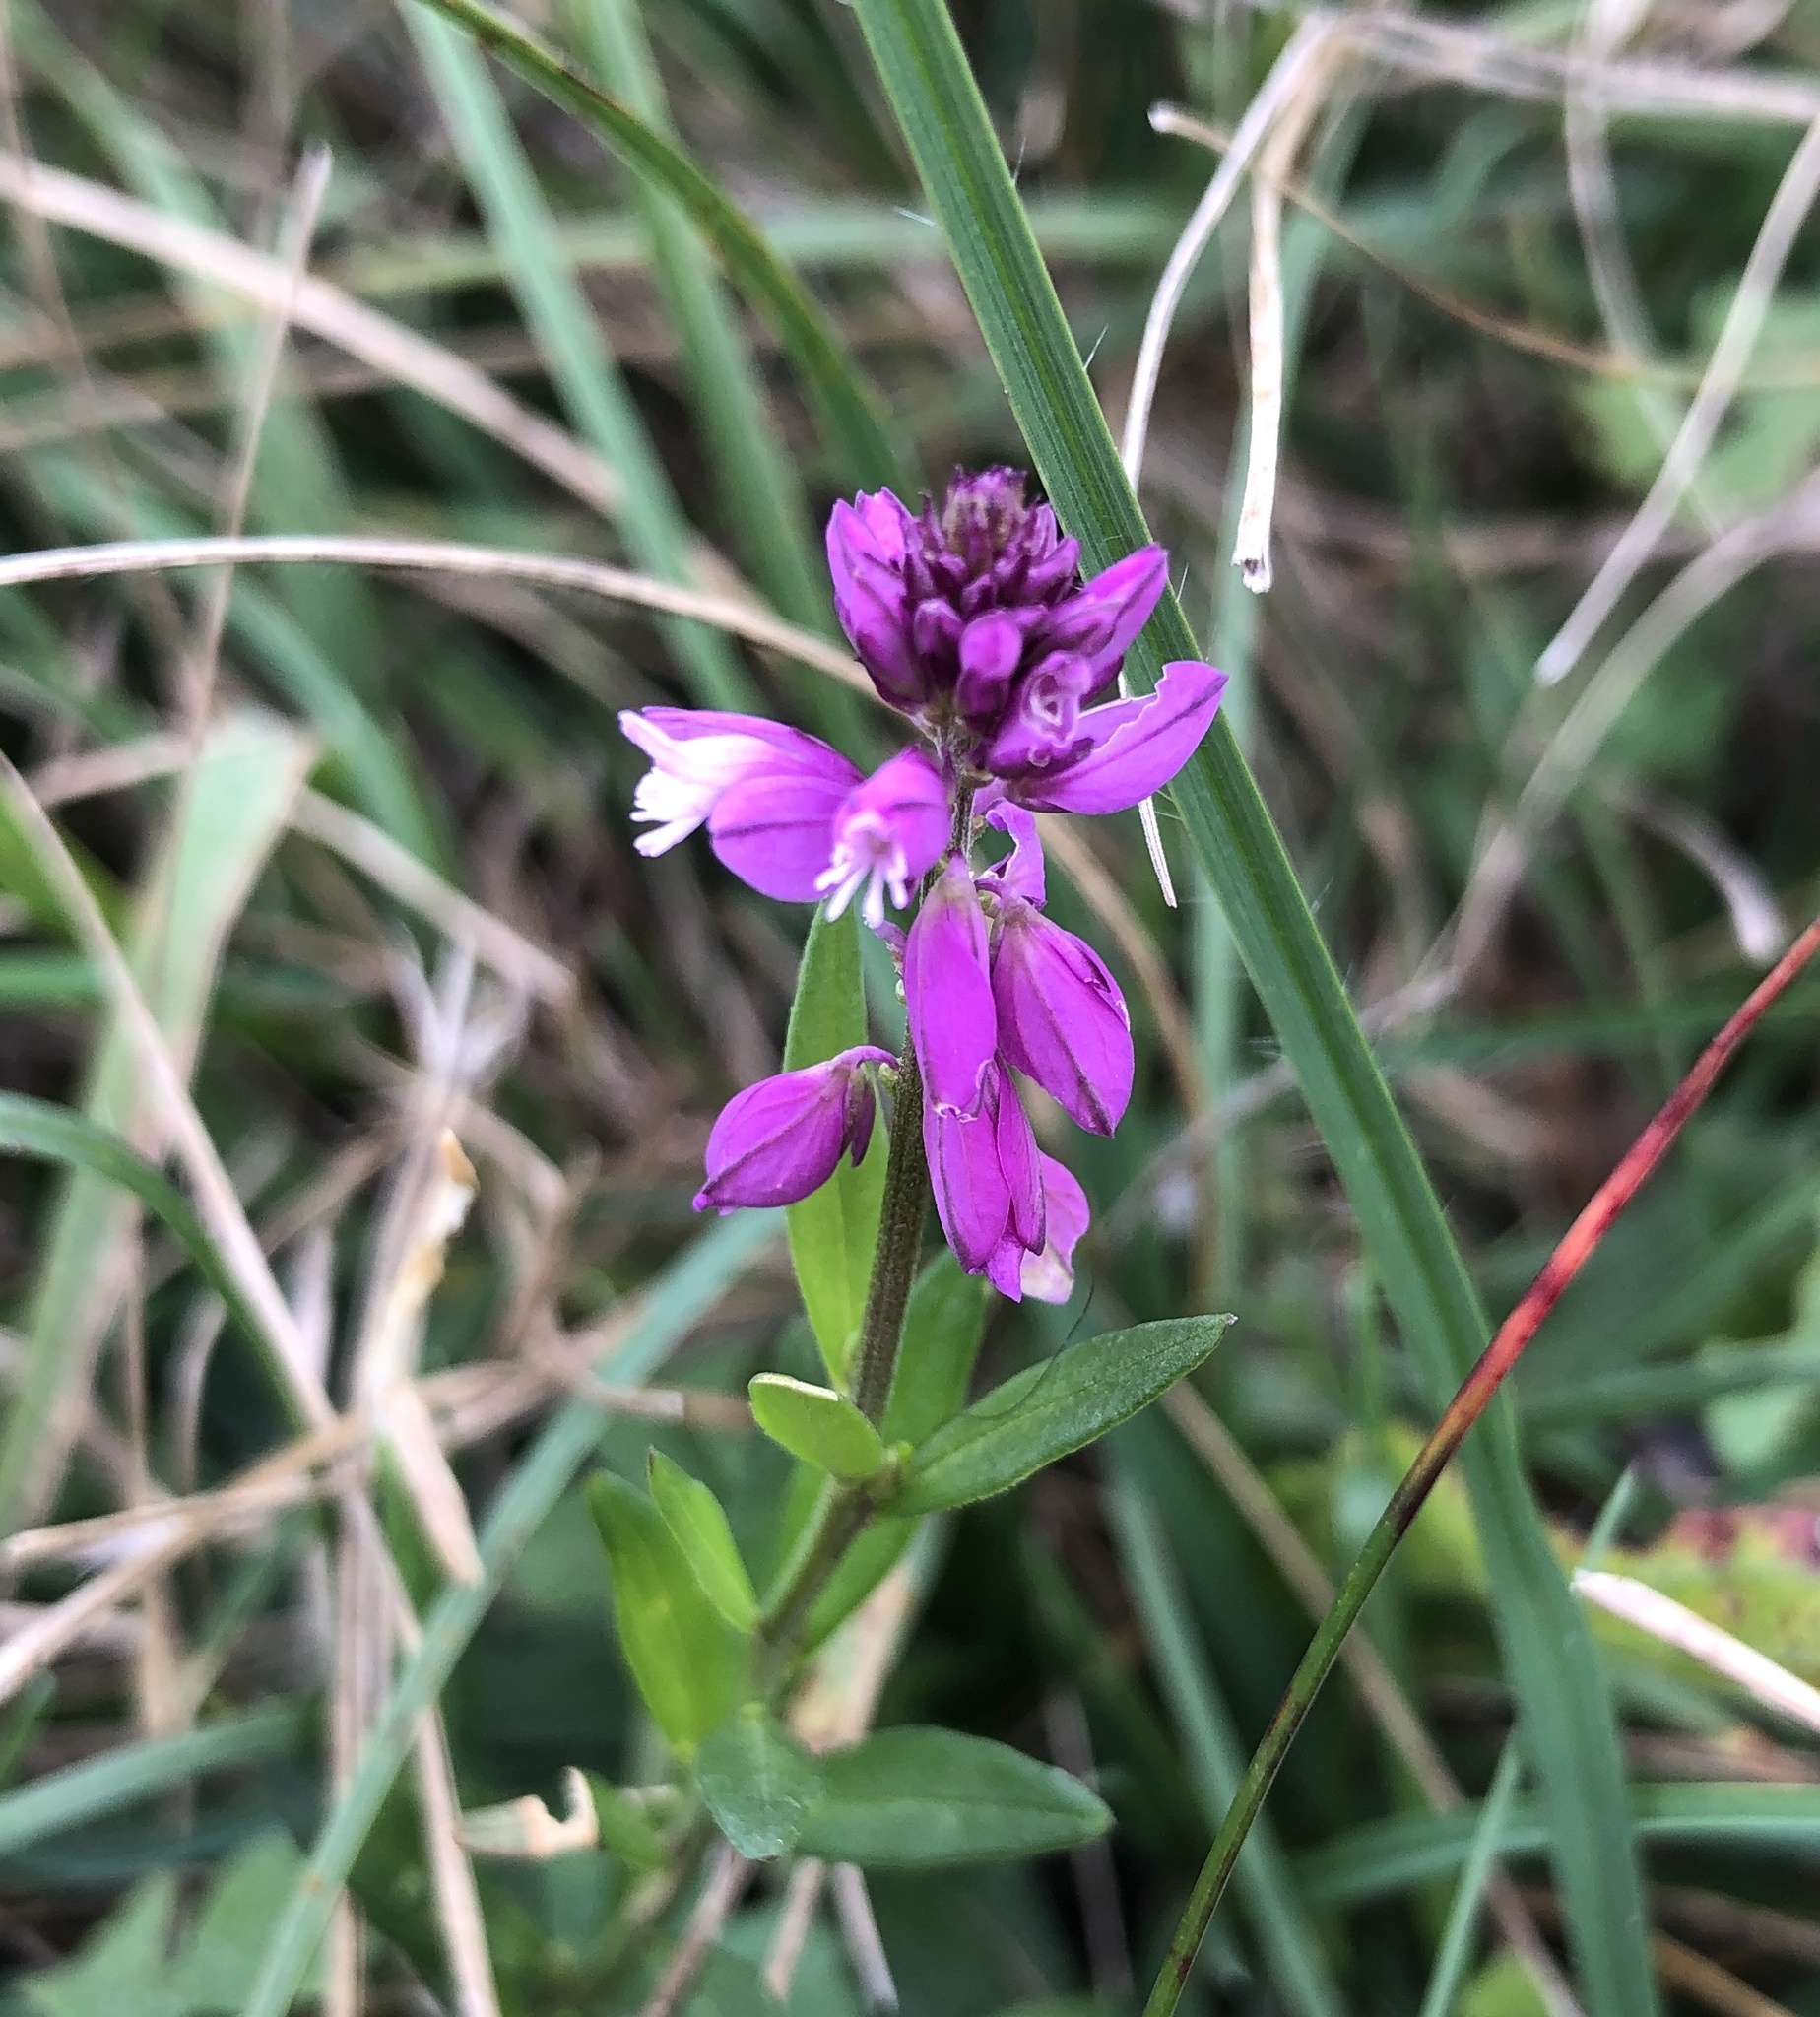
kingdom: Plantae
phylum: Tracheophyta
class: Magnoliopsida
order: Fabales
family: Polygalaceae
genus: Polygala
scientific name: Polygala vulgaris
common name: Common milkwort
